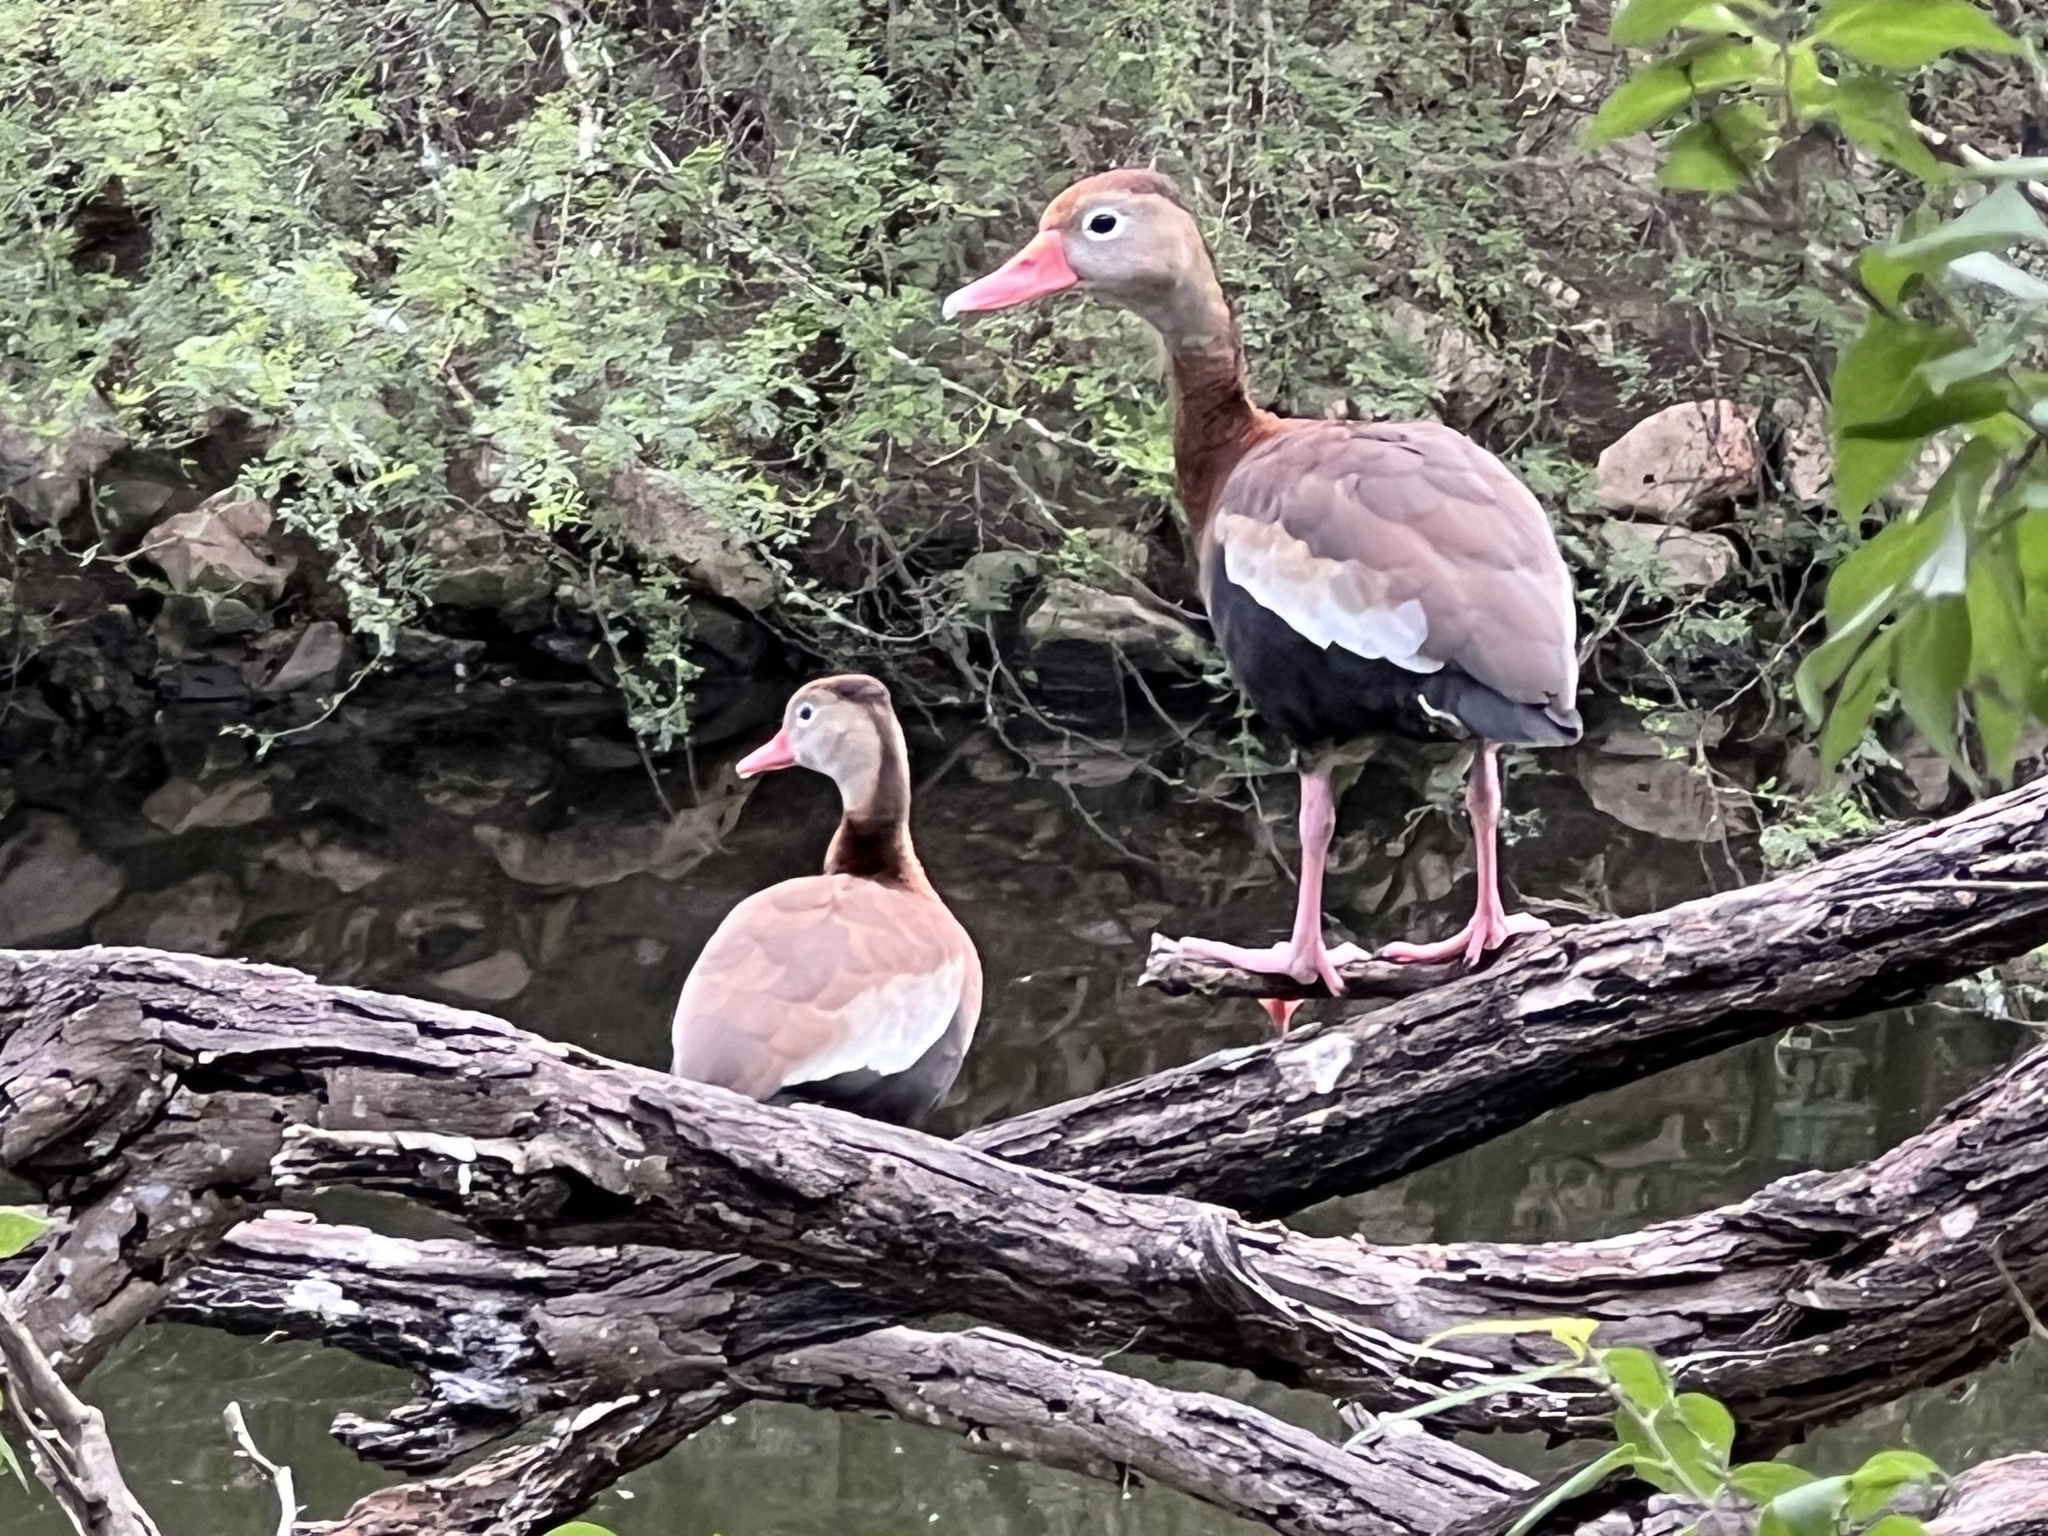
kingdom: Animalia
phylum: Chordata
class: Aves
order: Anseriformes
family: Anatidae
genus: Dendrocygna
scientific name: Dendrocygna autumnalis
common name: Black-bellied whistling duck
